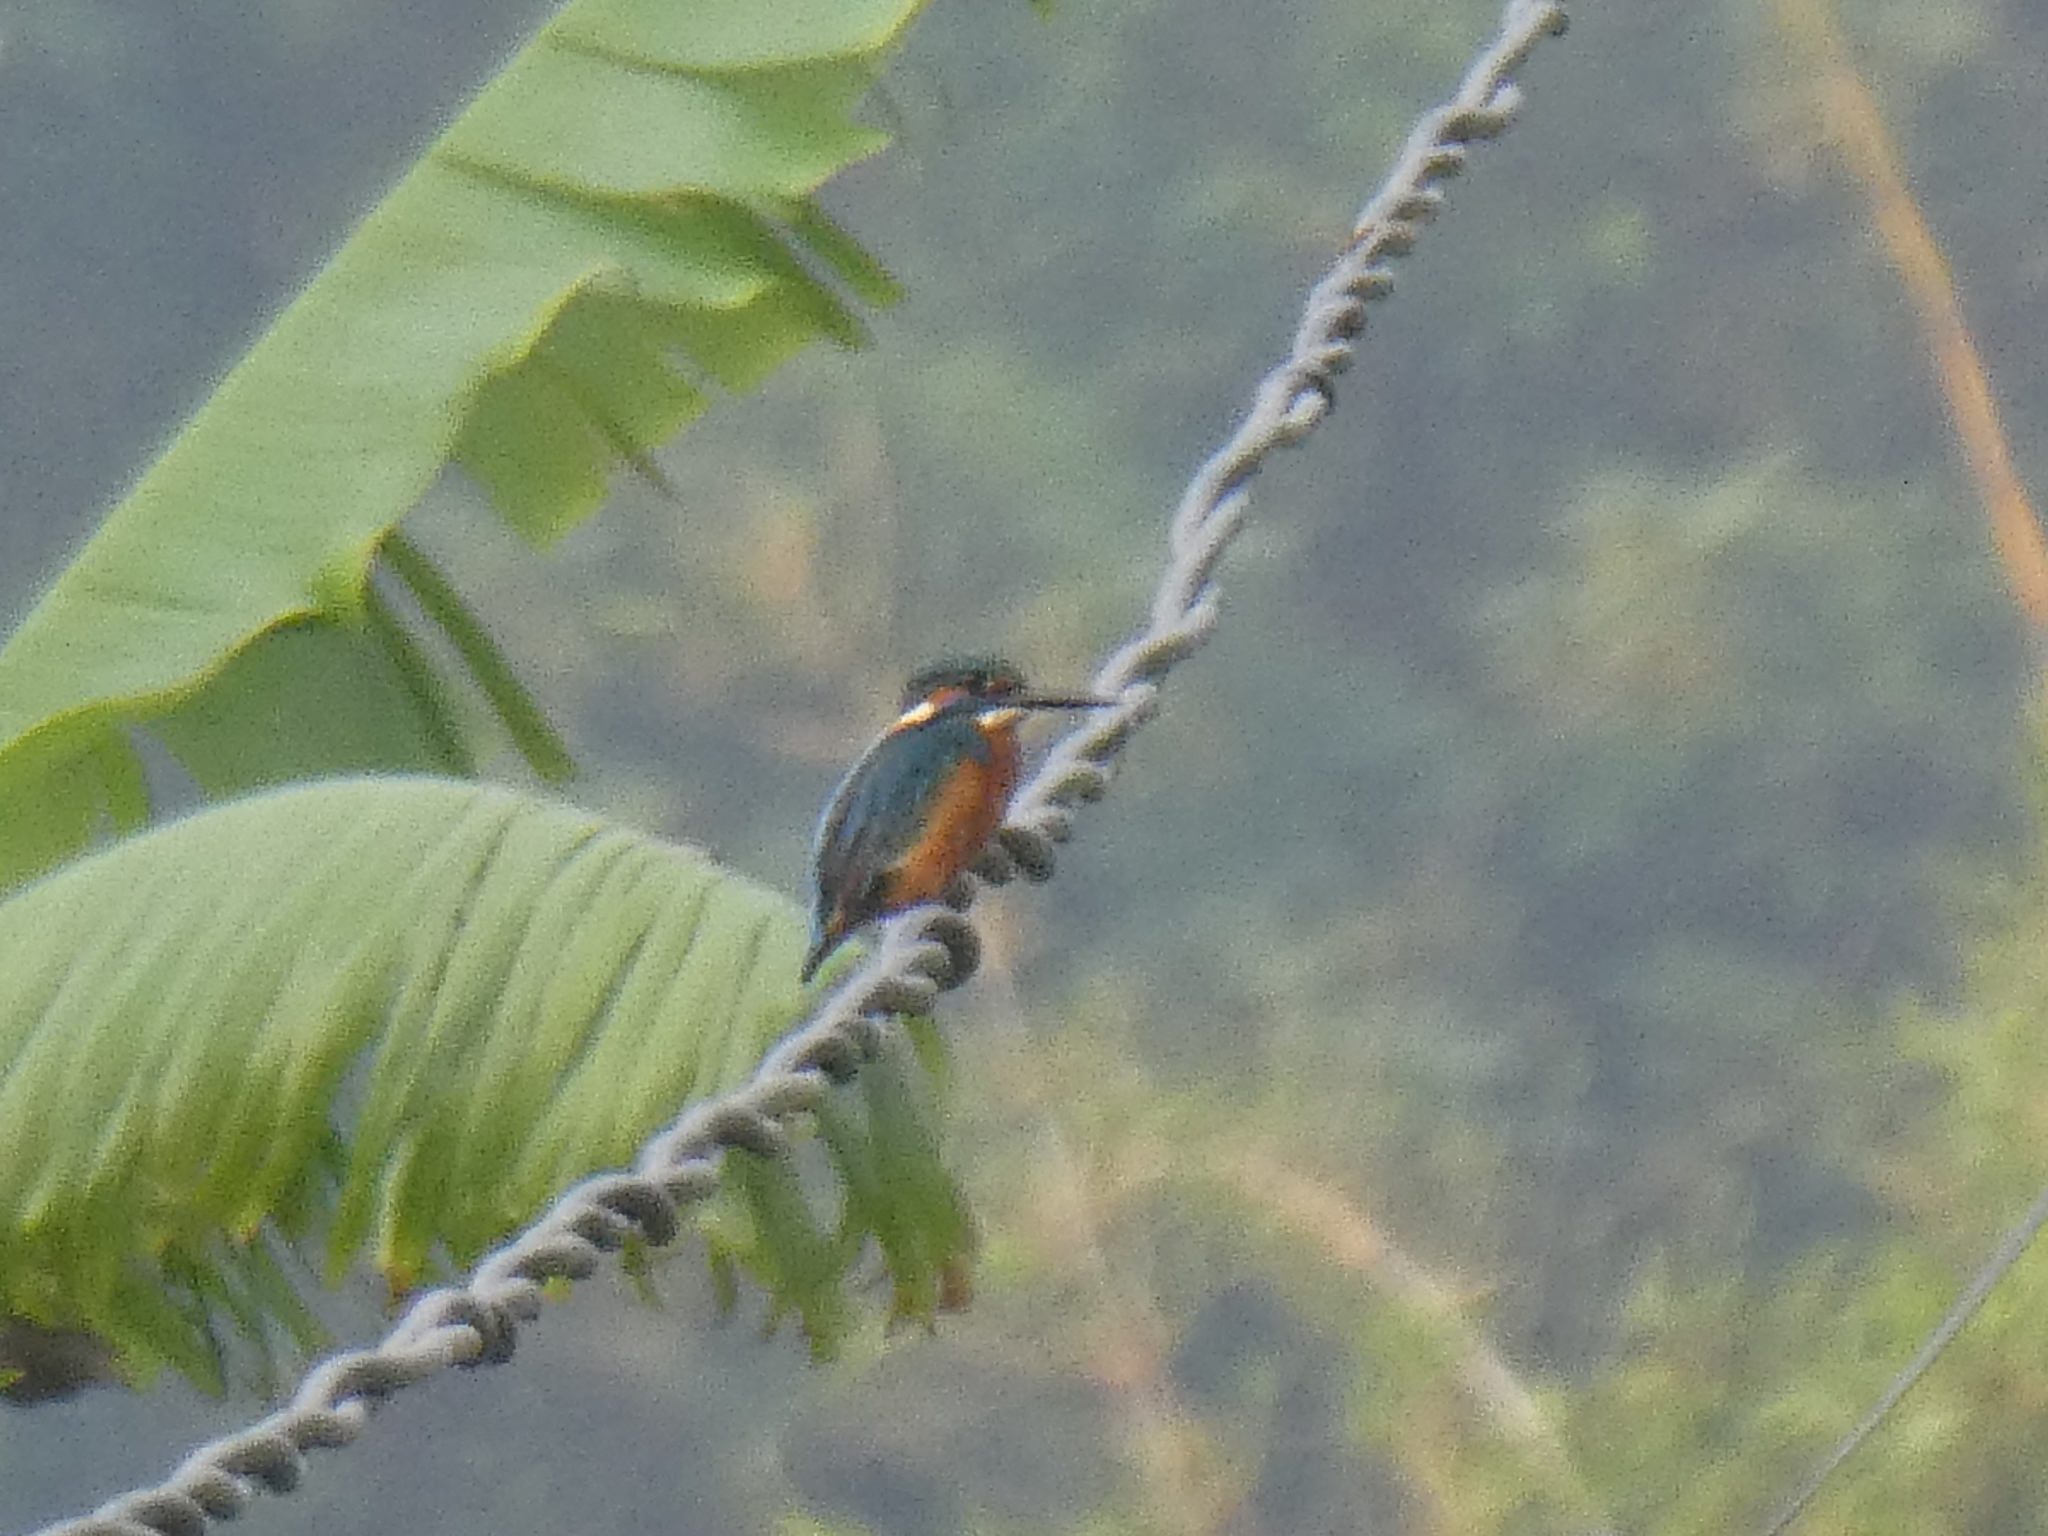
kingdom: Animalia
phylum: Chordata
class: Aves
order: Coraciiformes
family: Alcedinidae
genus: Alcedo
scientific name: Alcedo atthis
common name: Common kingfisher
